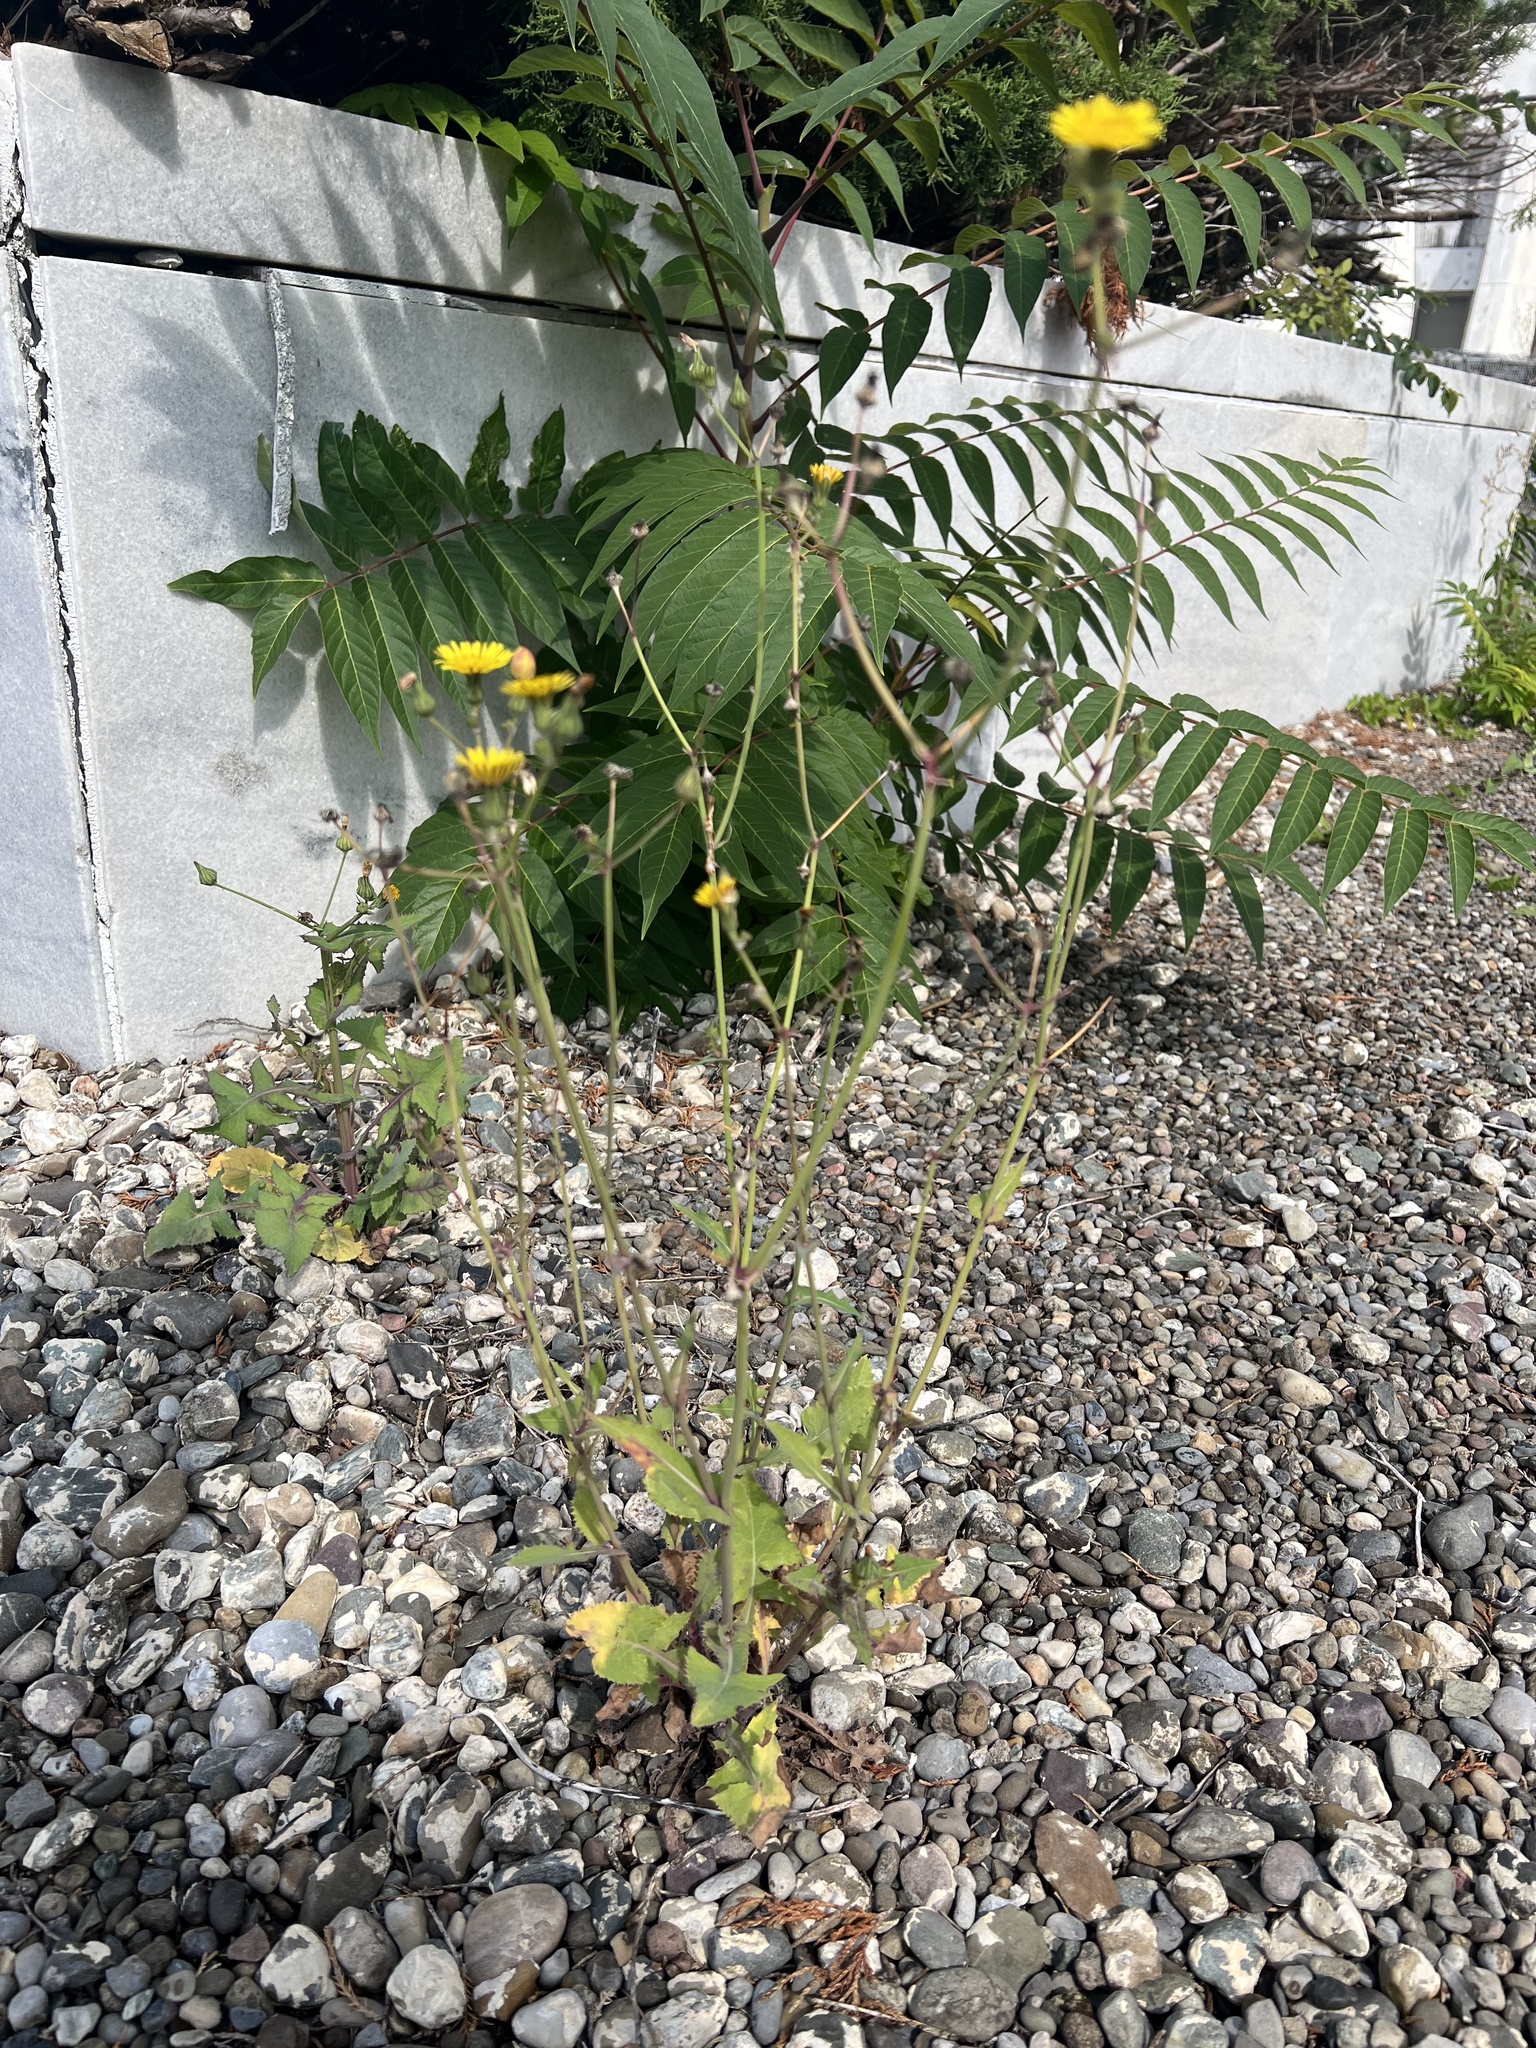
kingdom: Plantae
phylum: Tracheophyta
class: Magnoliopsida
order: Asterales
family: Asteraceae
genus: Sonchus
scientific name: Sonchus oleraceus
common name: Common sowthistle
